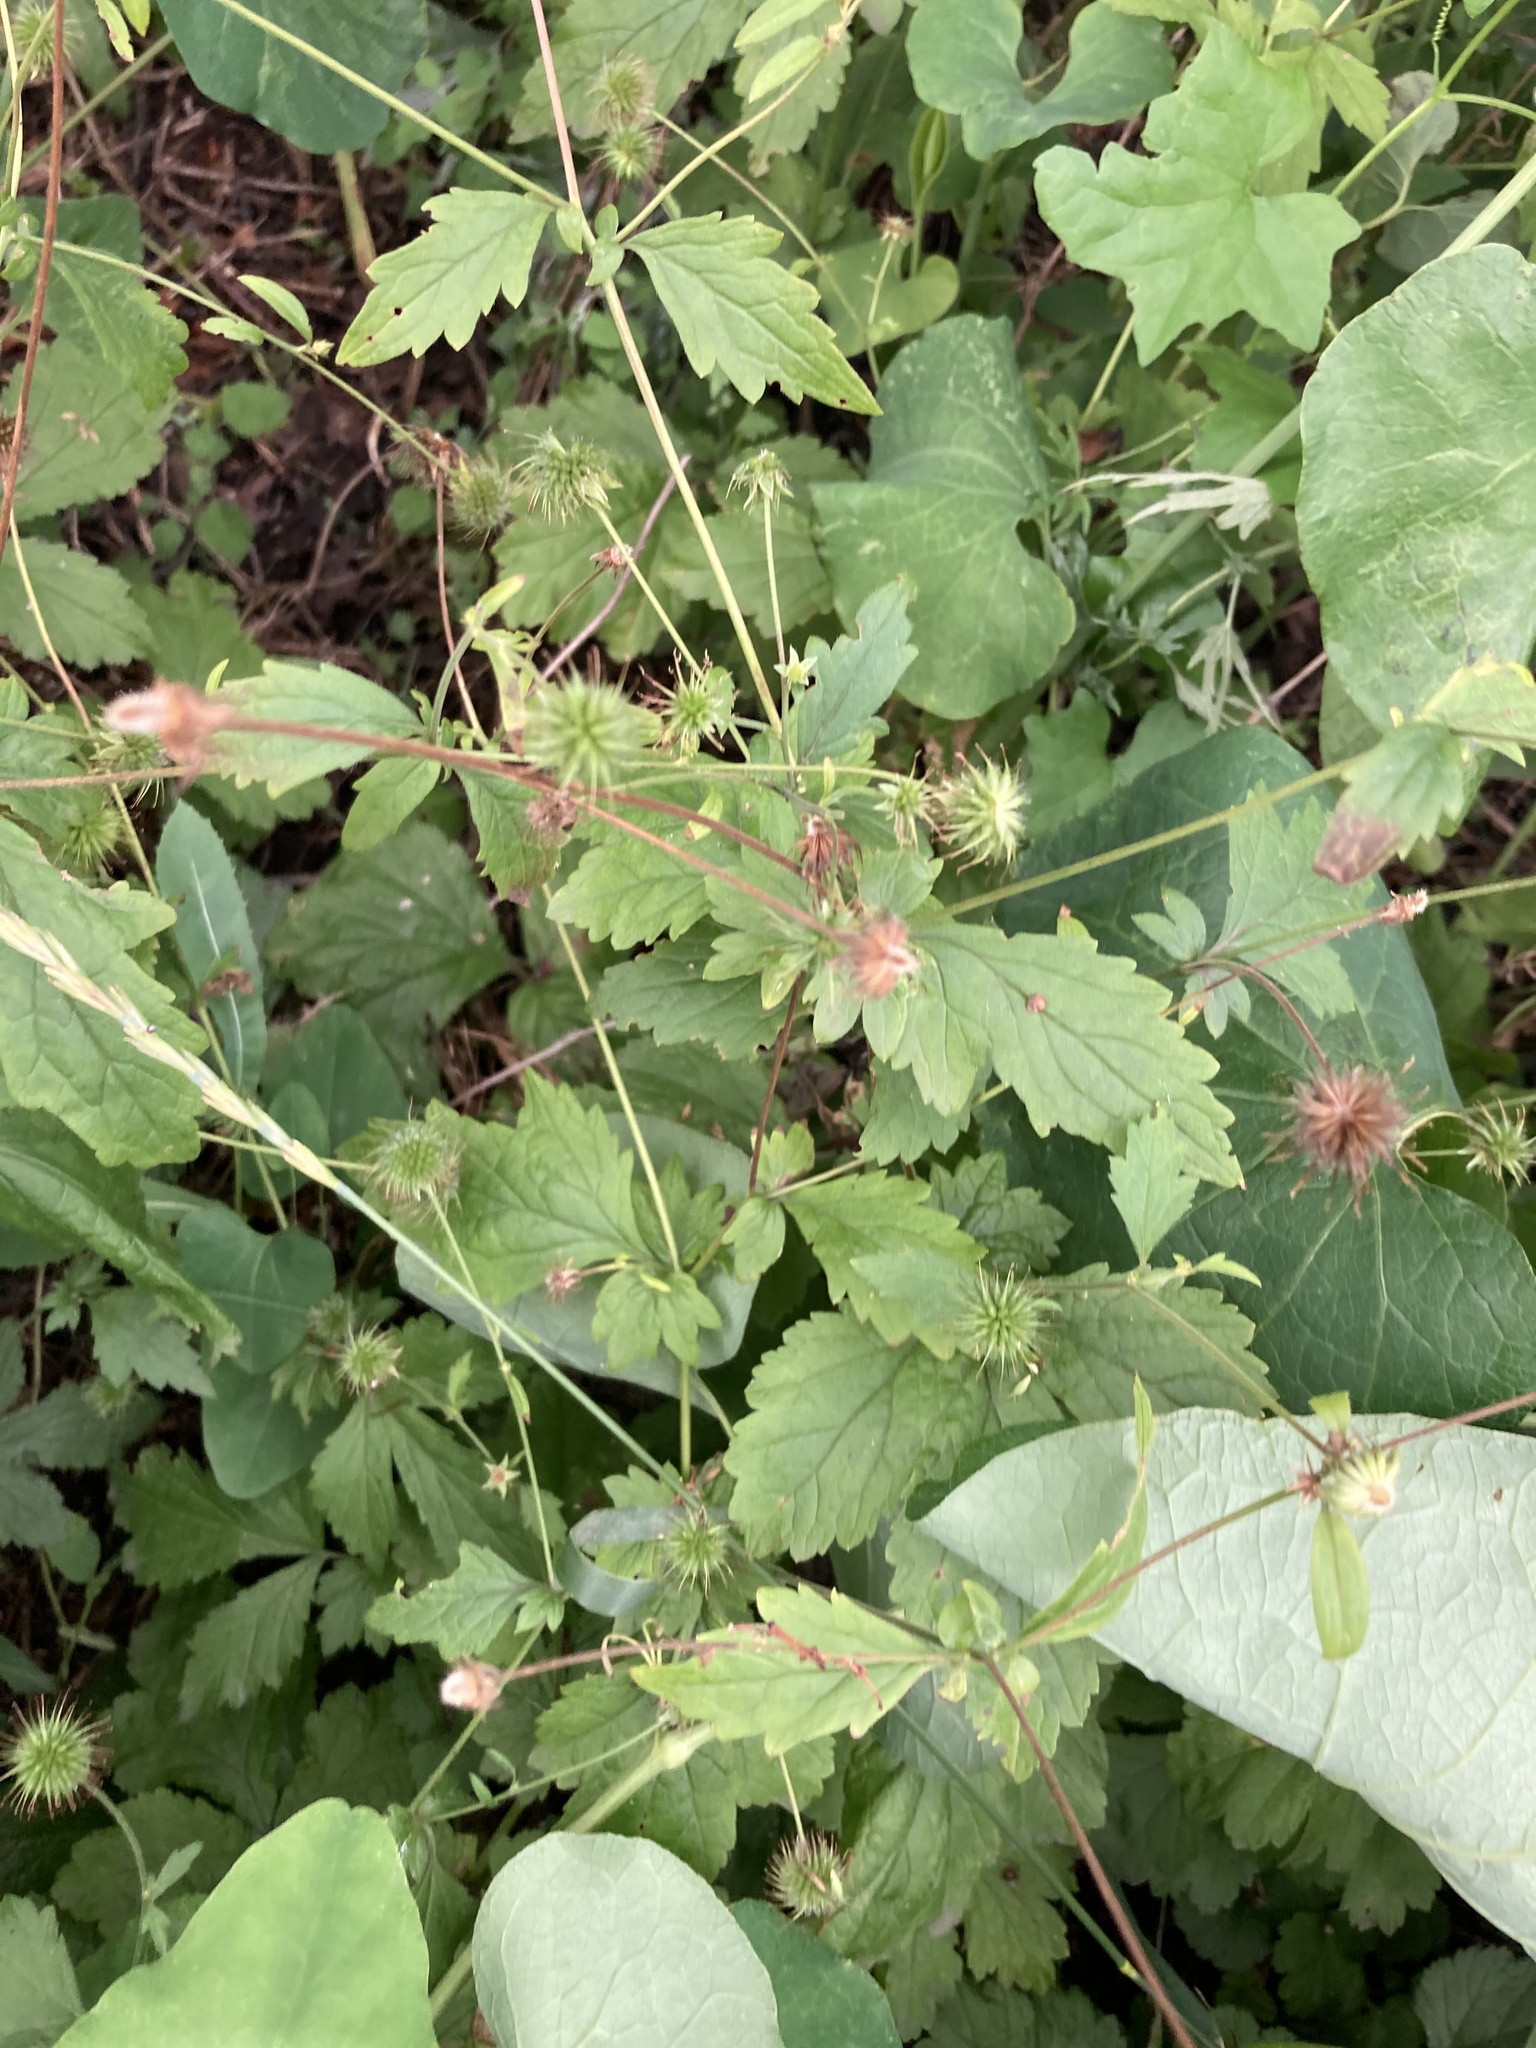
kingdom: Plantae
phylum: Tracheophyta
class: Magnoliopsida
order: Rosales
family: Rosaceae
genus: Geum
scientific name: Geum urbanum
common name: Wood avens
